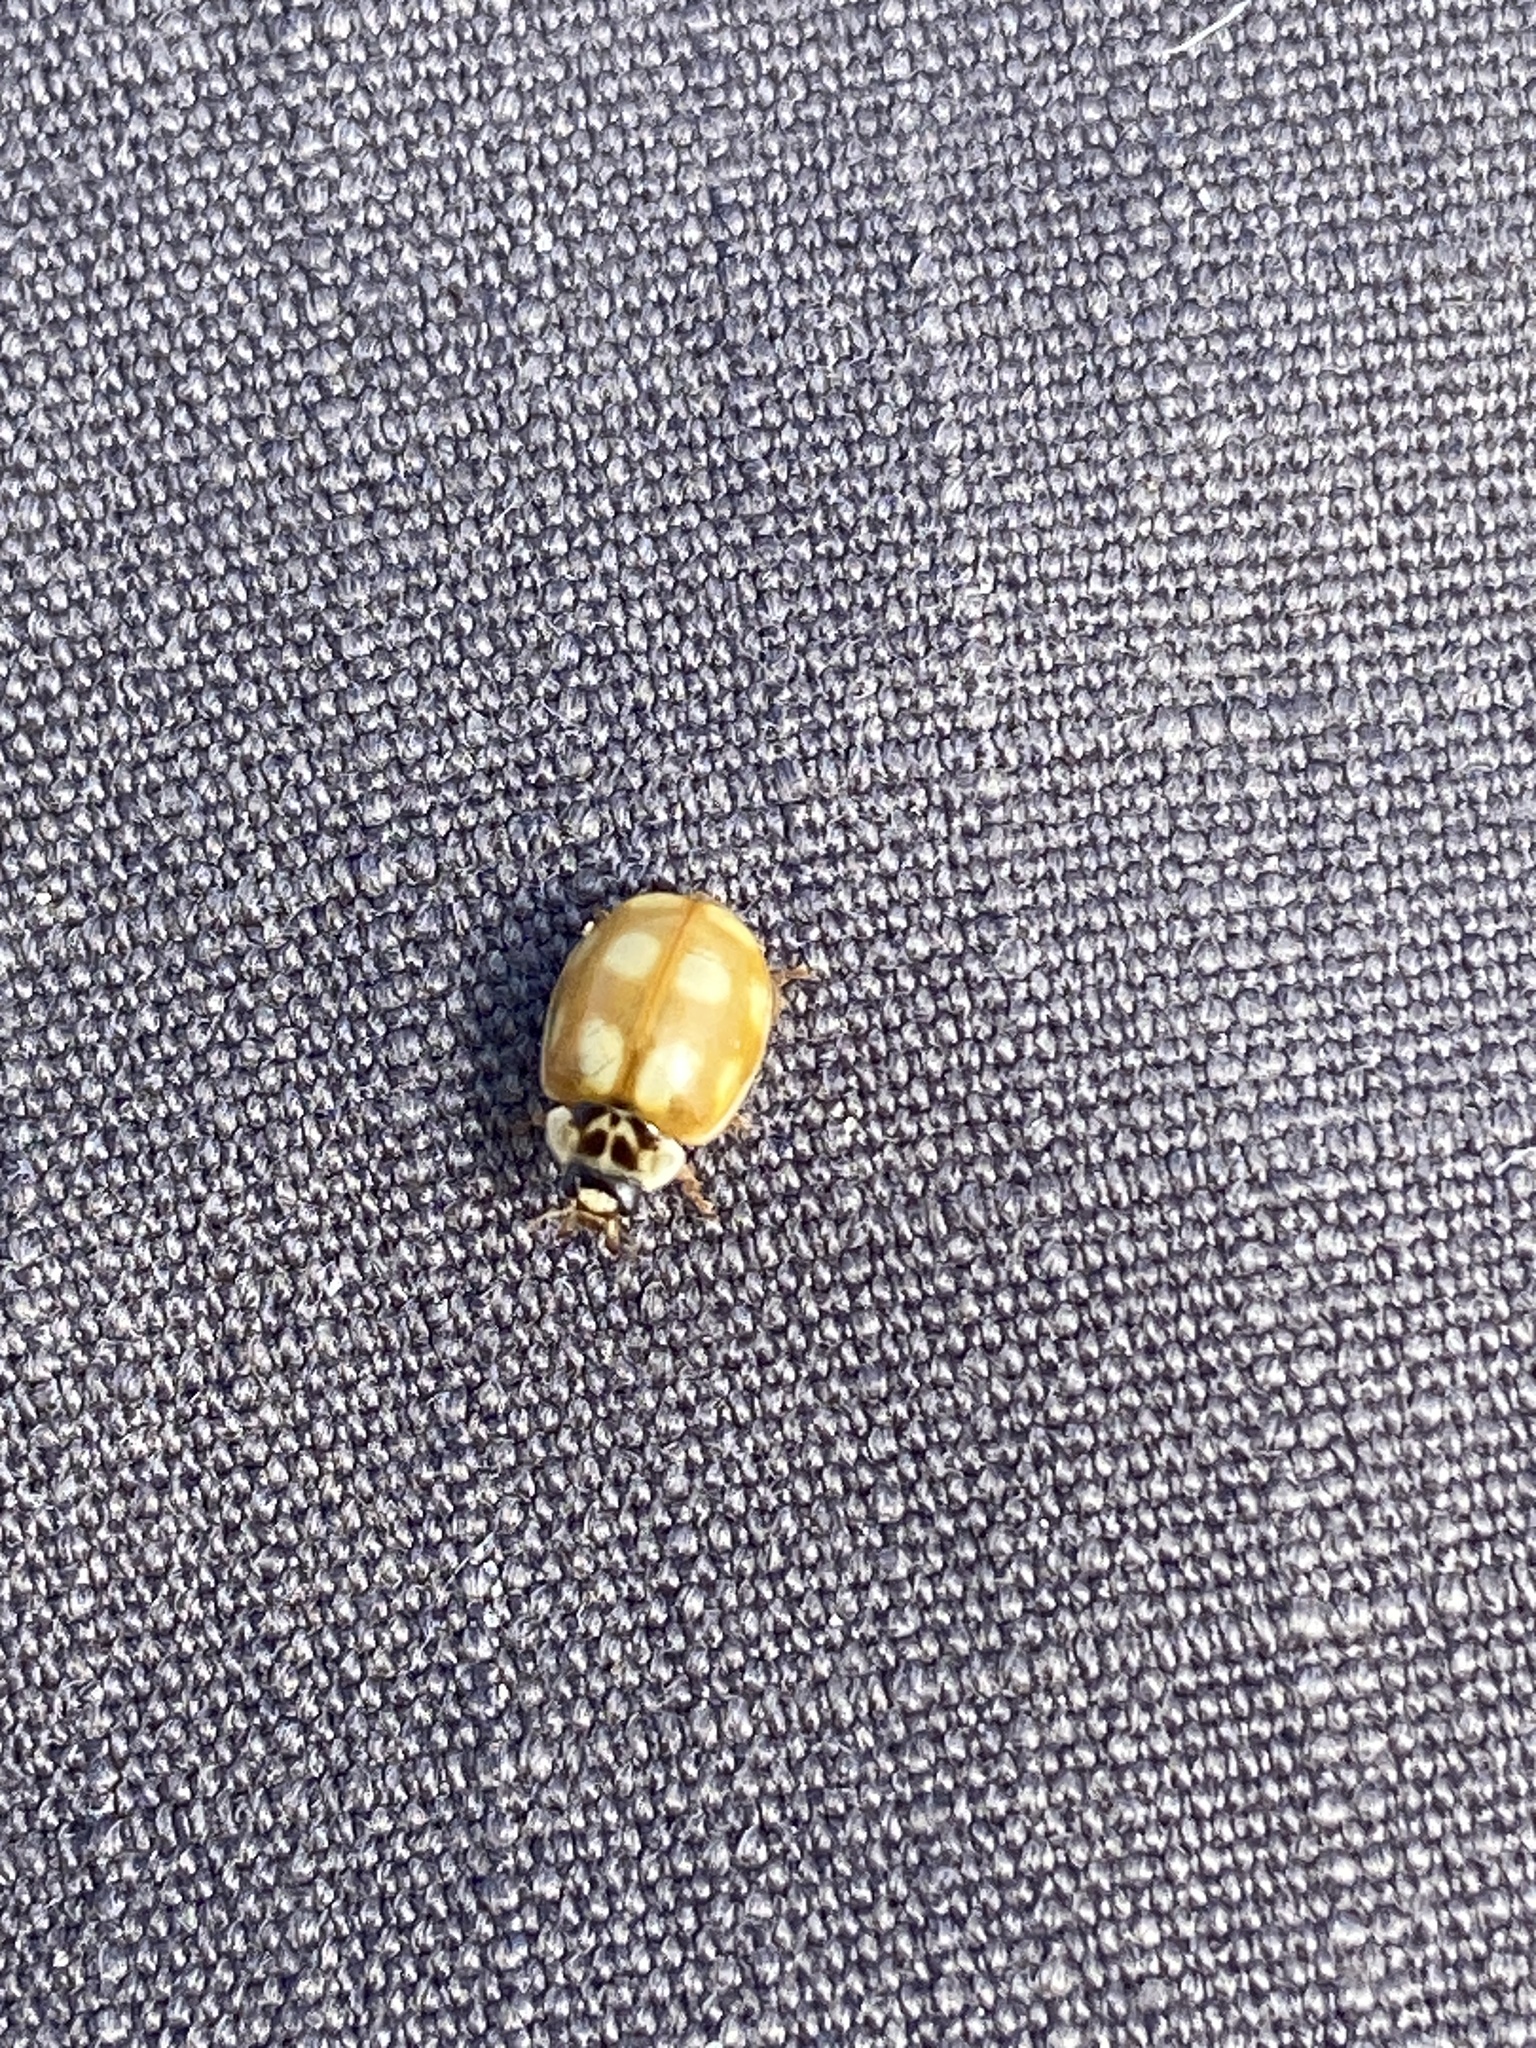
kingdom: Animalia
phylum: Arthropoda
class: Insecta
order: Coleoptera
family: Coccinellidae
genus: Adalia
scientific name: Adalia decempunctata
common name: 10-spot ladybird
